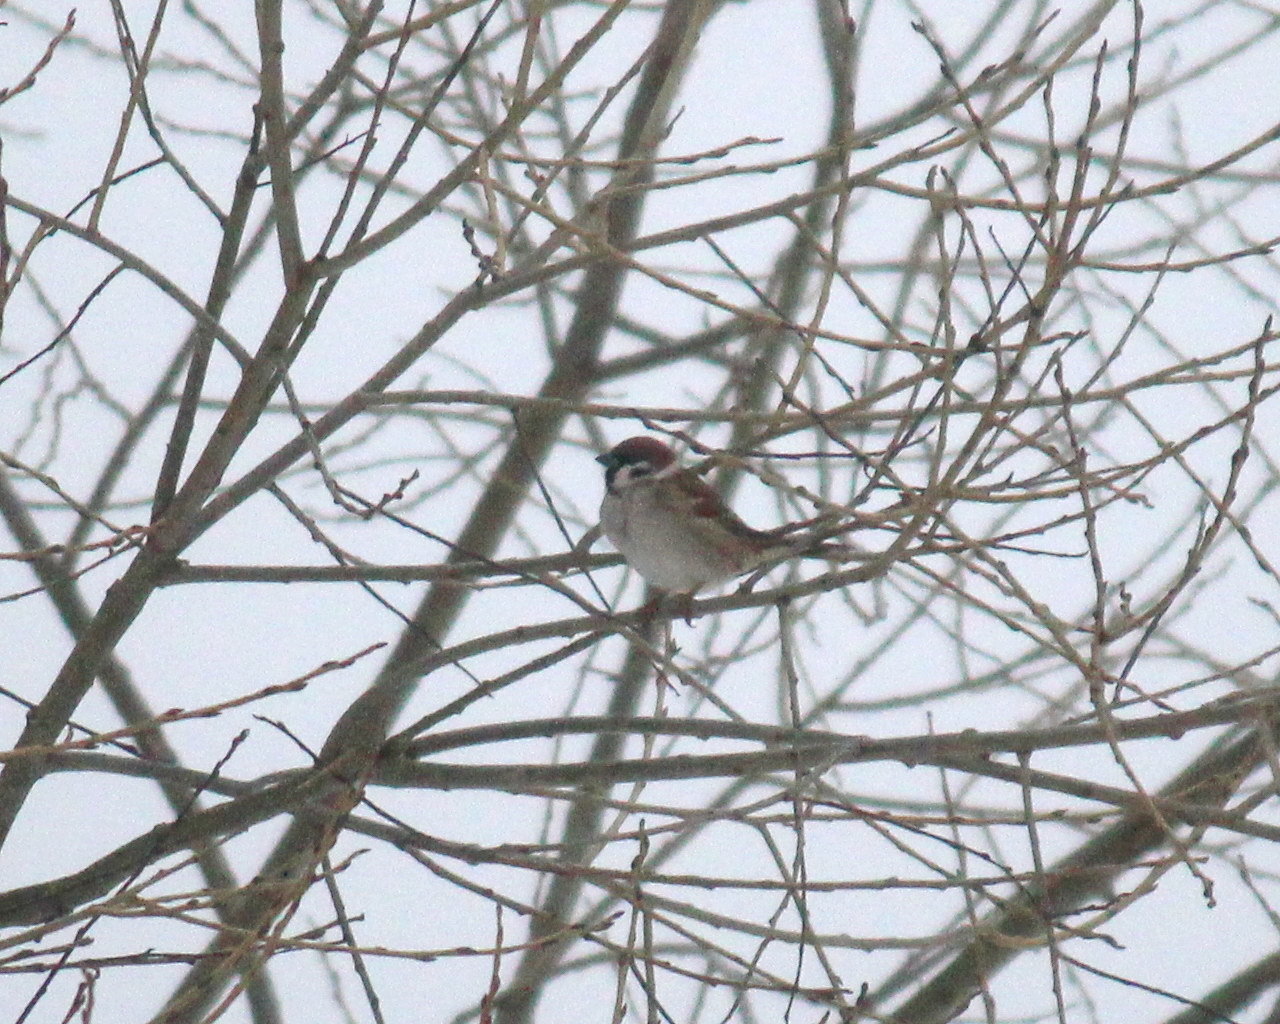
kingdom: Animalia
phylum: Chordata
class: Aves
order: Passeriformes
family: Passeridae
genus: Passer
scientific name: Passer montanus
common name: Eurasian tree sparrow
